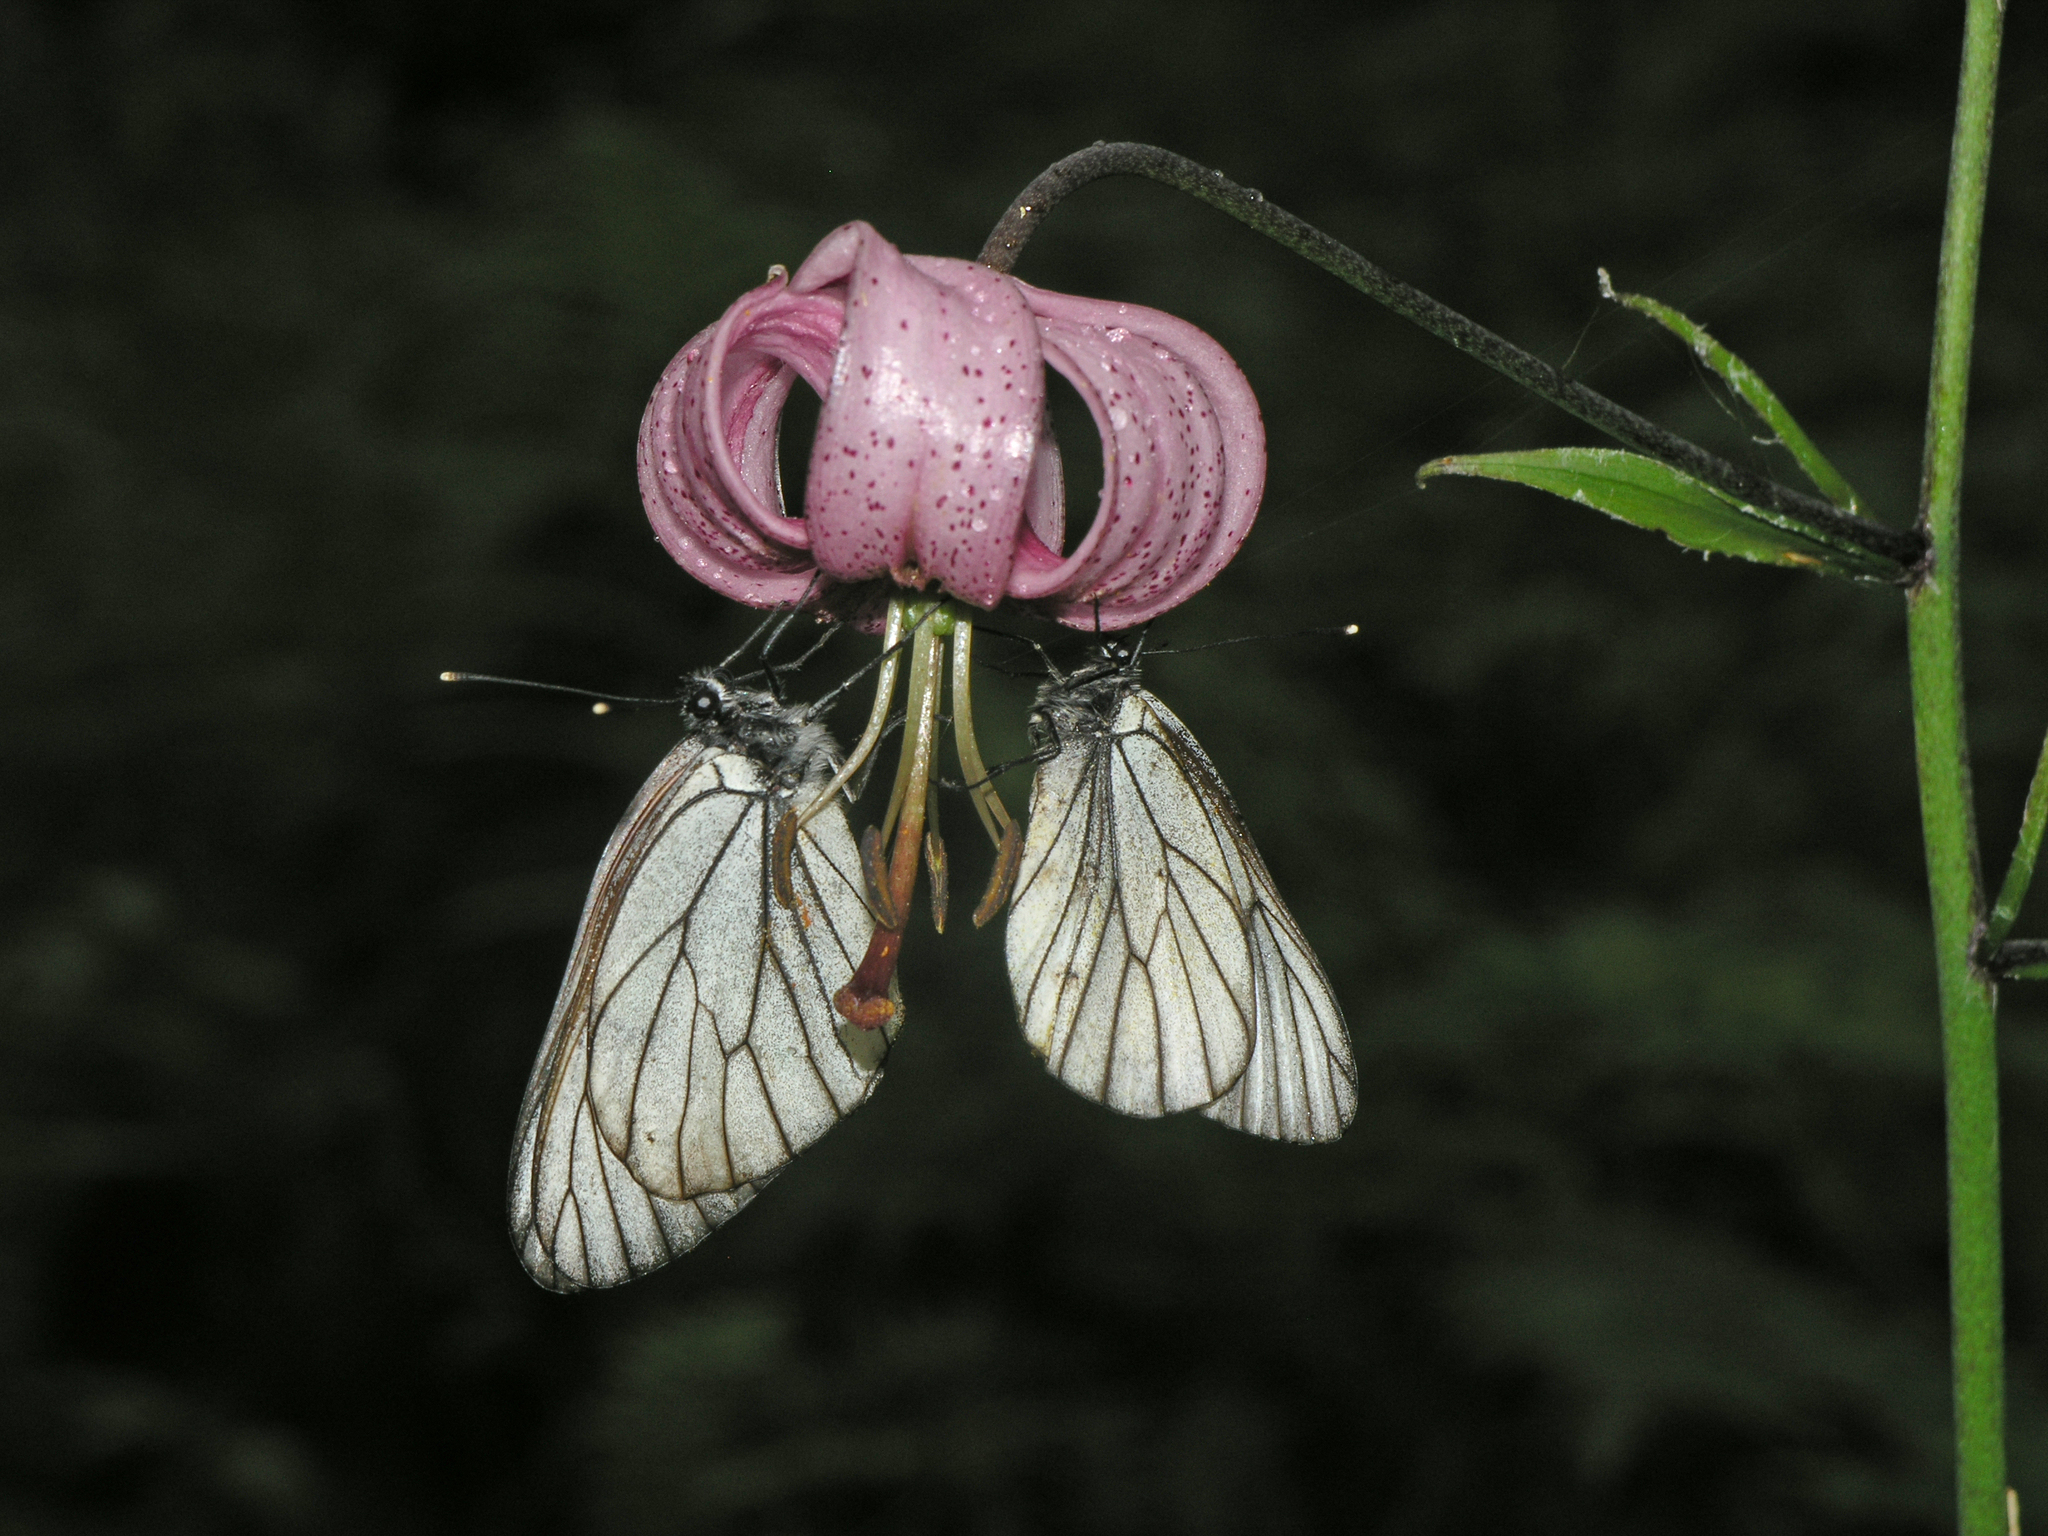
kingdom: Animalia
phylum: Arthropoda
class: Insecta
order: Lepidoptera
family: Pieridae
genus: Aporia
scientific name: Aporia crataegi
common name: Black-veined white
